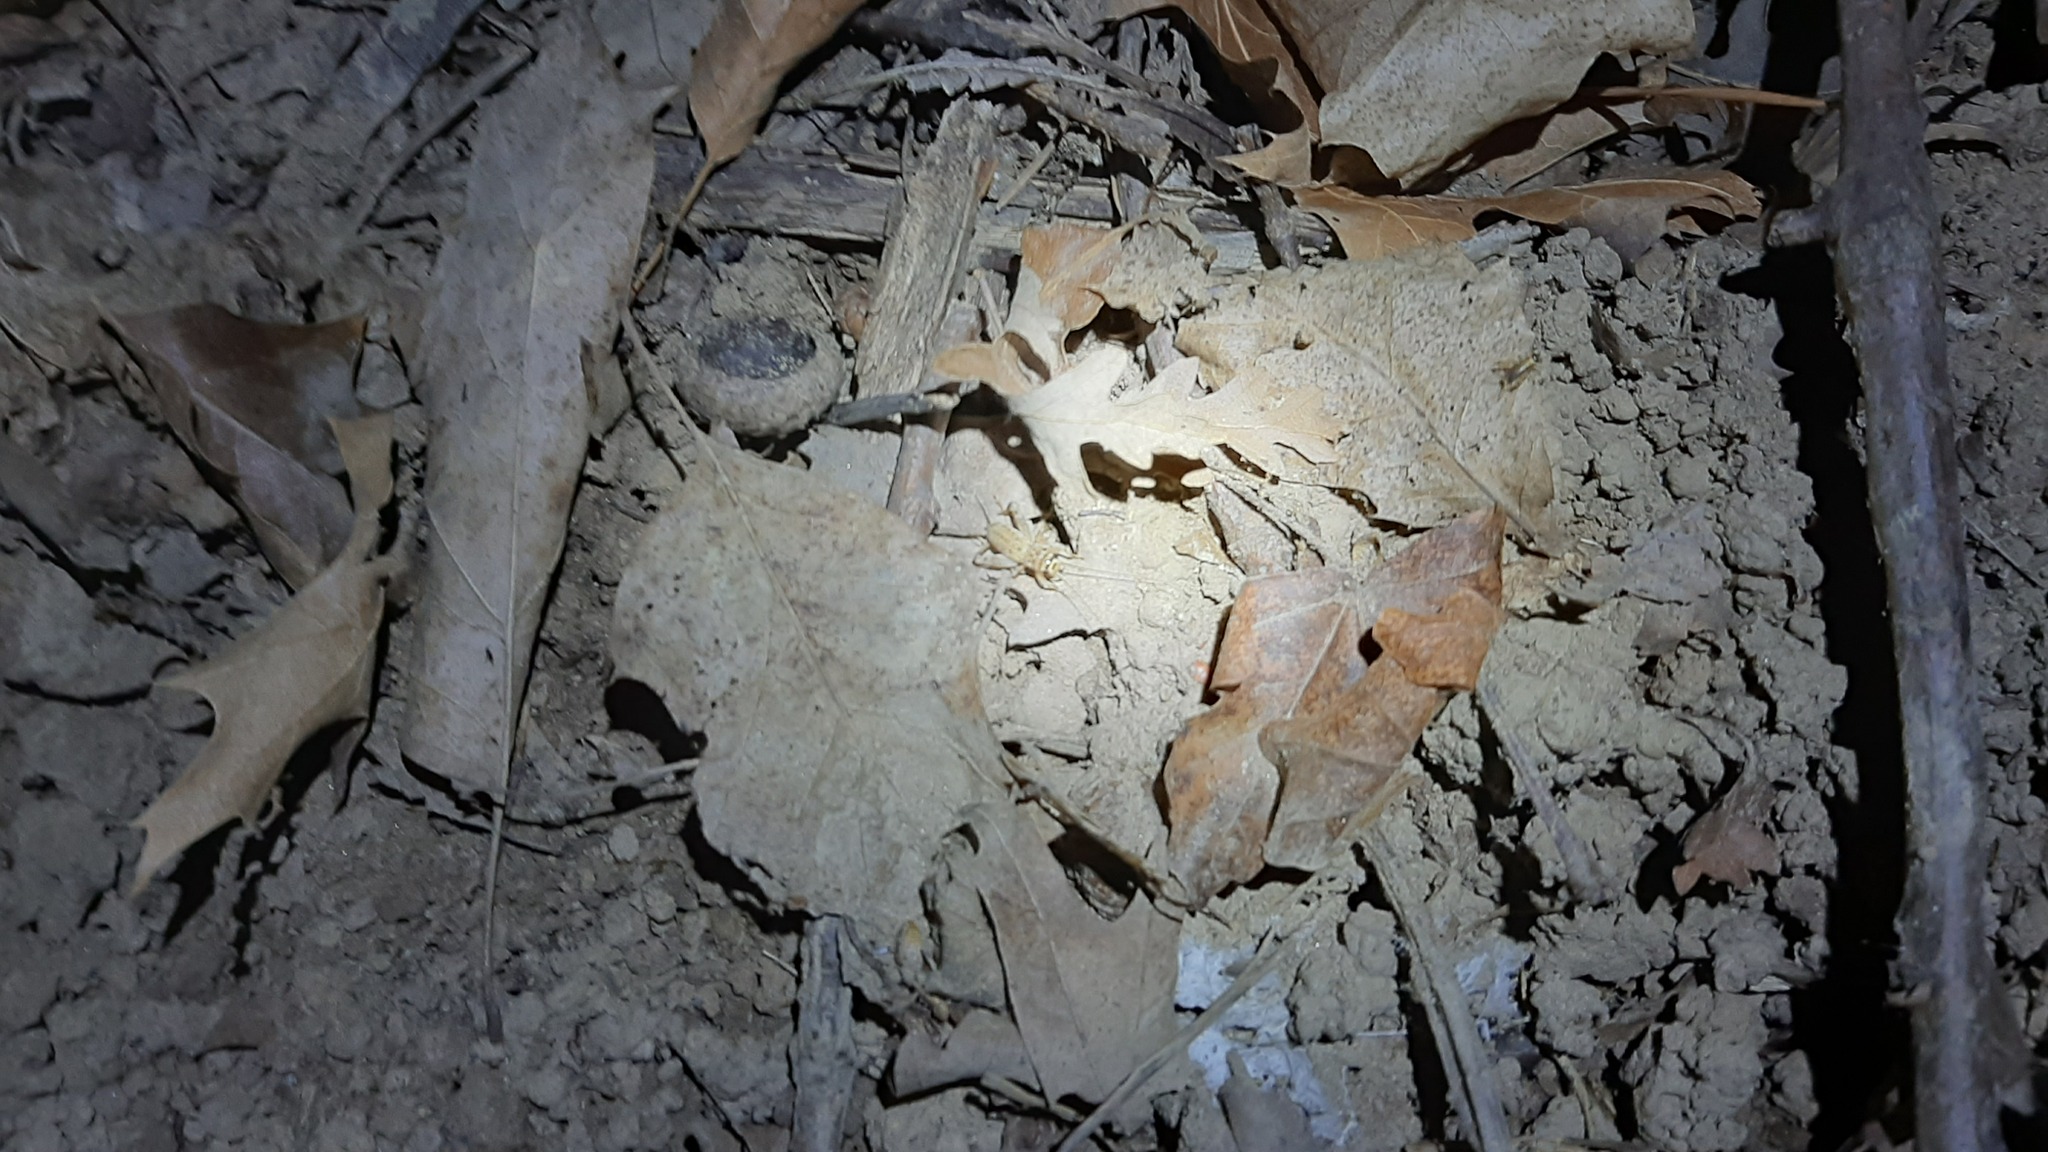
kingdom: Animalia
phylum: Arthropoda
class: Insecta
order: Orthoptera
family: Gryllidae
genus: Eumodicogryllus
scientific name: Eumodicogryllus bordigalensis
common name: Bordeaux cricket
